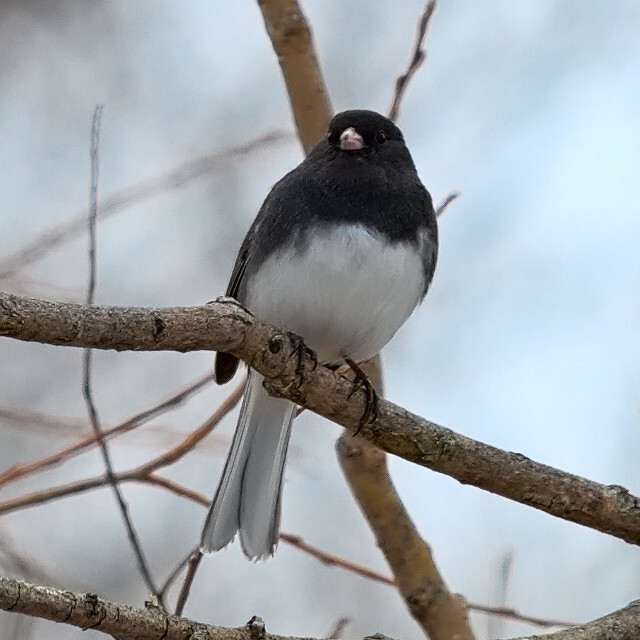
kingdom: Animalia
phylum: Chordata
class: Aves
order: Passeriformes
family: Passerellidae
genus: Junco
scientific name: Junco hyemalis
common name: Dark-eyed junco
